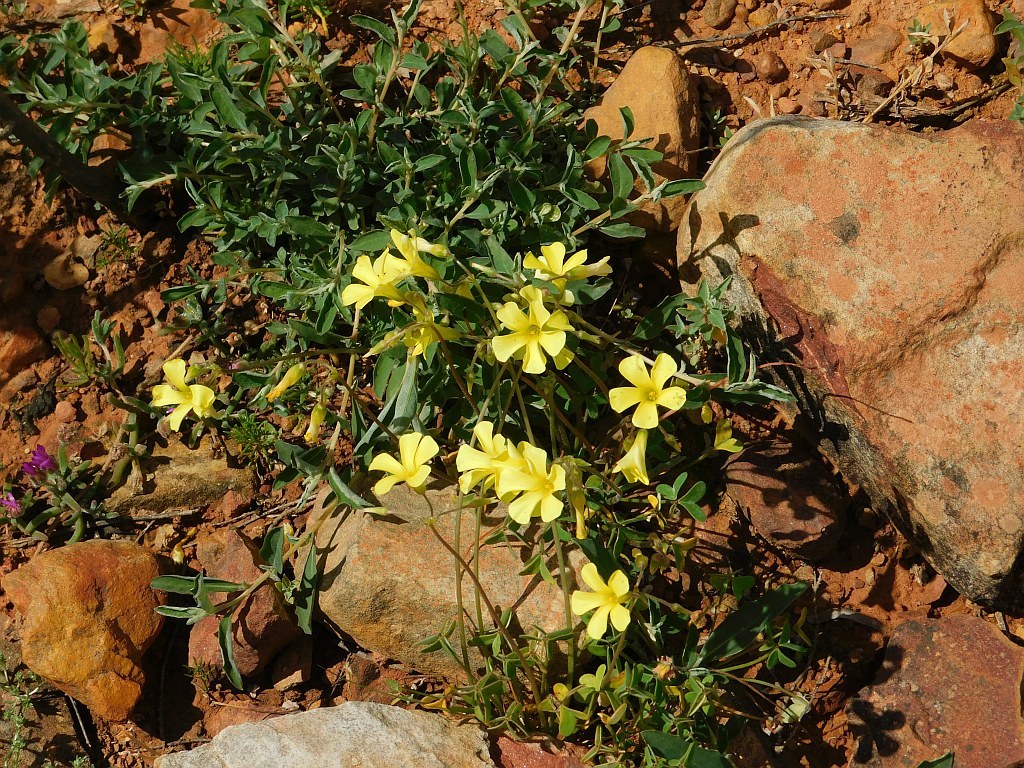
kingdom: Plantae
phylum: Tracheophyta
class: Magnoliopsida
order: Oxalidales
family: Oxalidaceae
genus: Oxalis
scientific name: Oxalis pes-caprae
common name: Bermuda-buttercup
